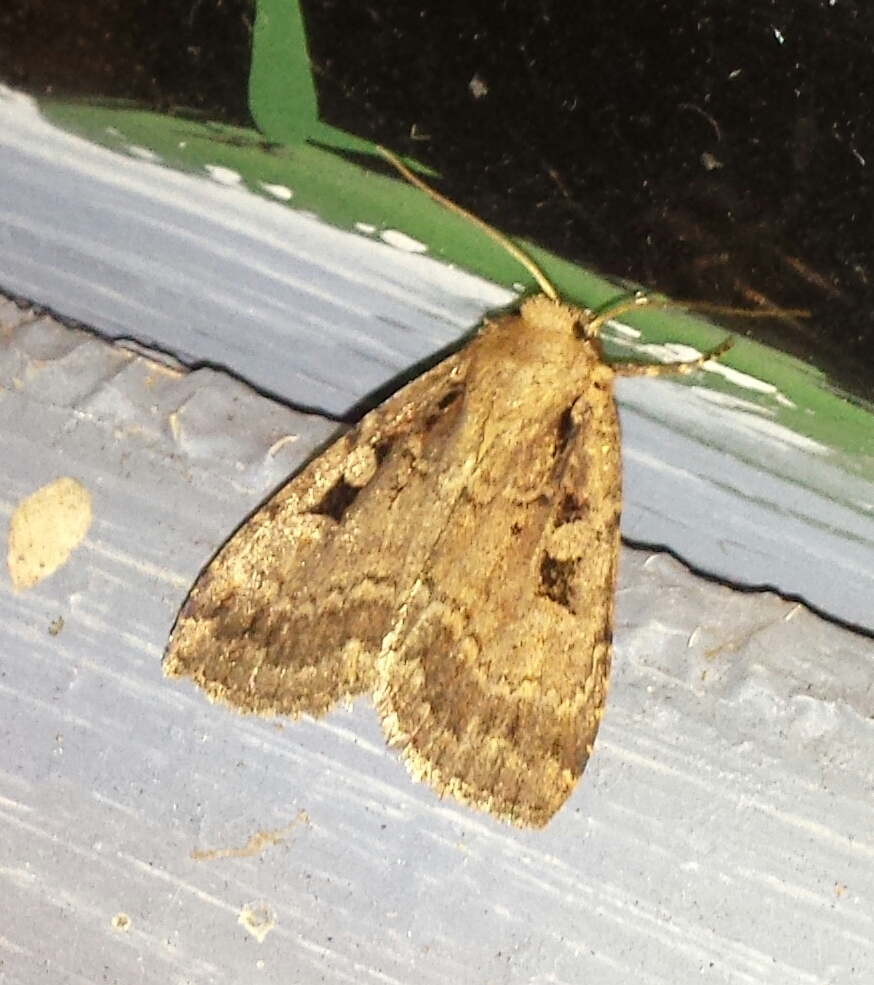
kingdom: Animalia
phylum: Arthropoda
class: Insecta
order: Lepidoptera
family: Noctuidae
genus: Euxoa
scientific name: Euxoa tessellata
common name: Striped cutworm
